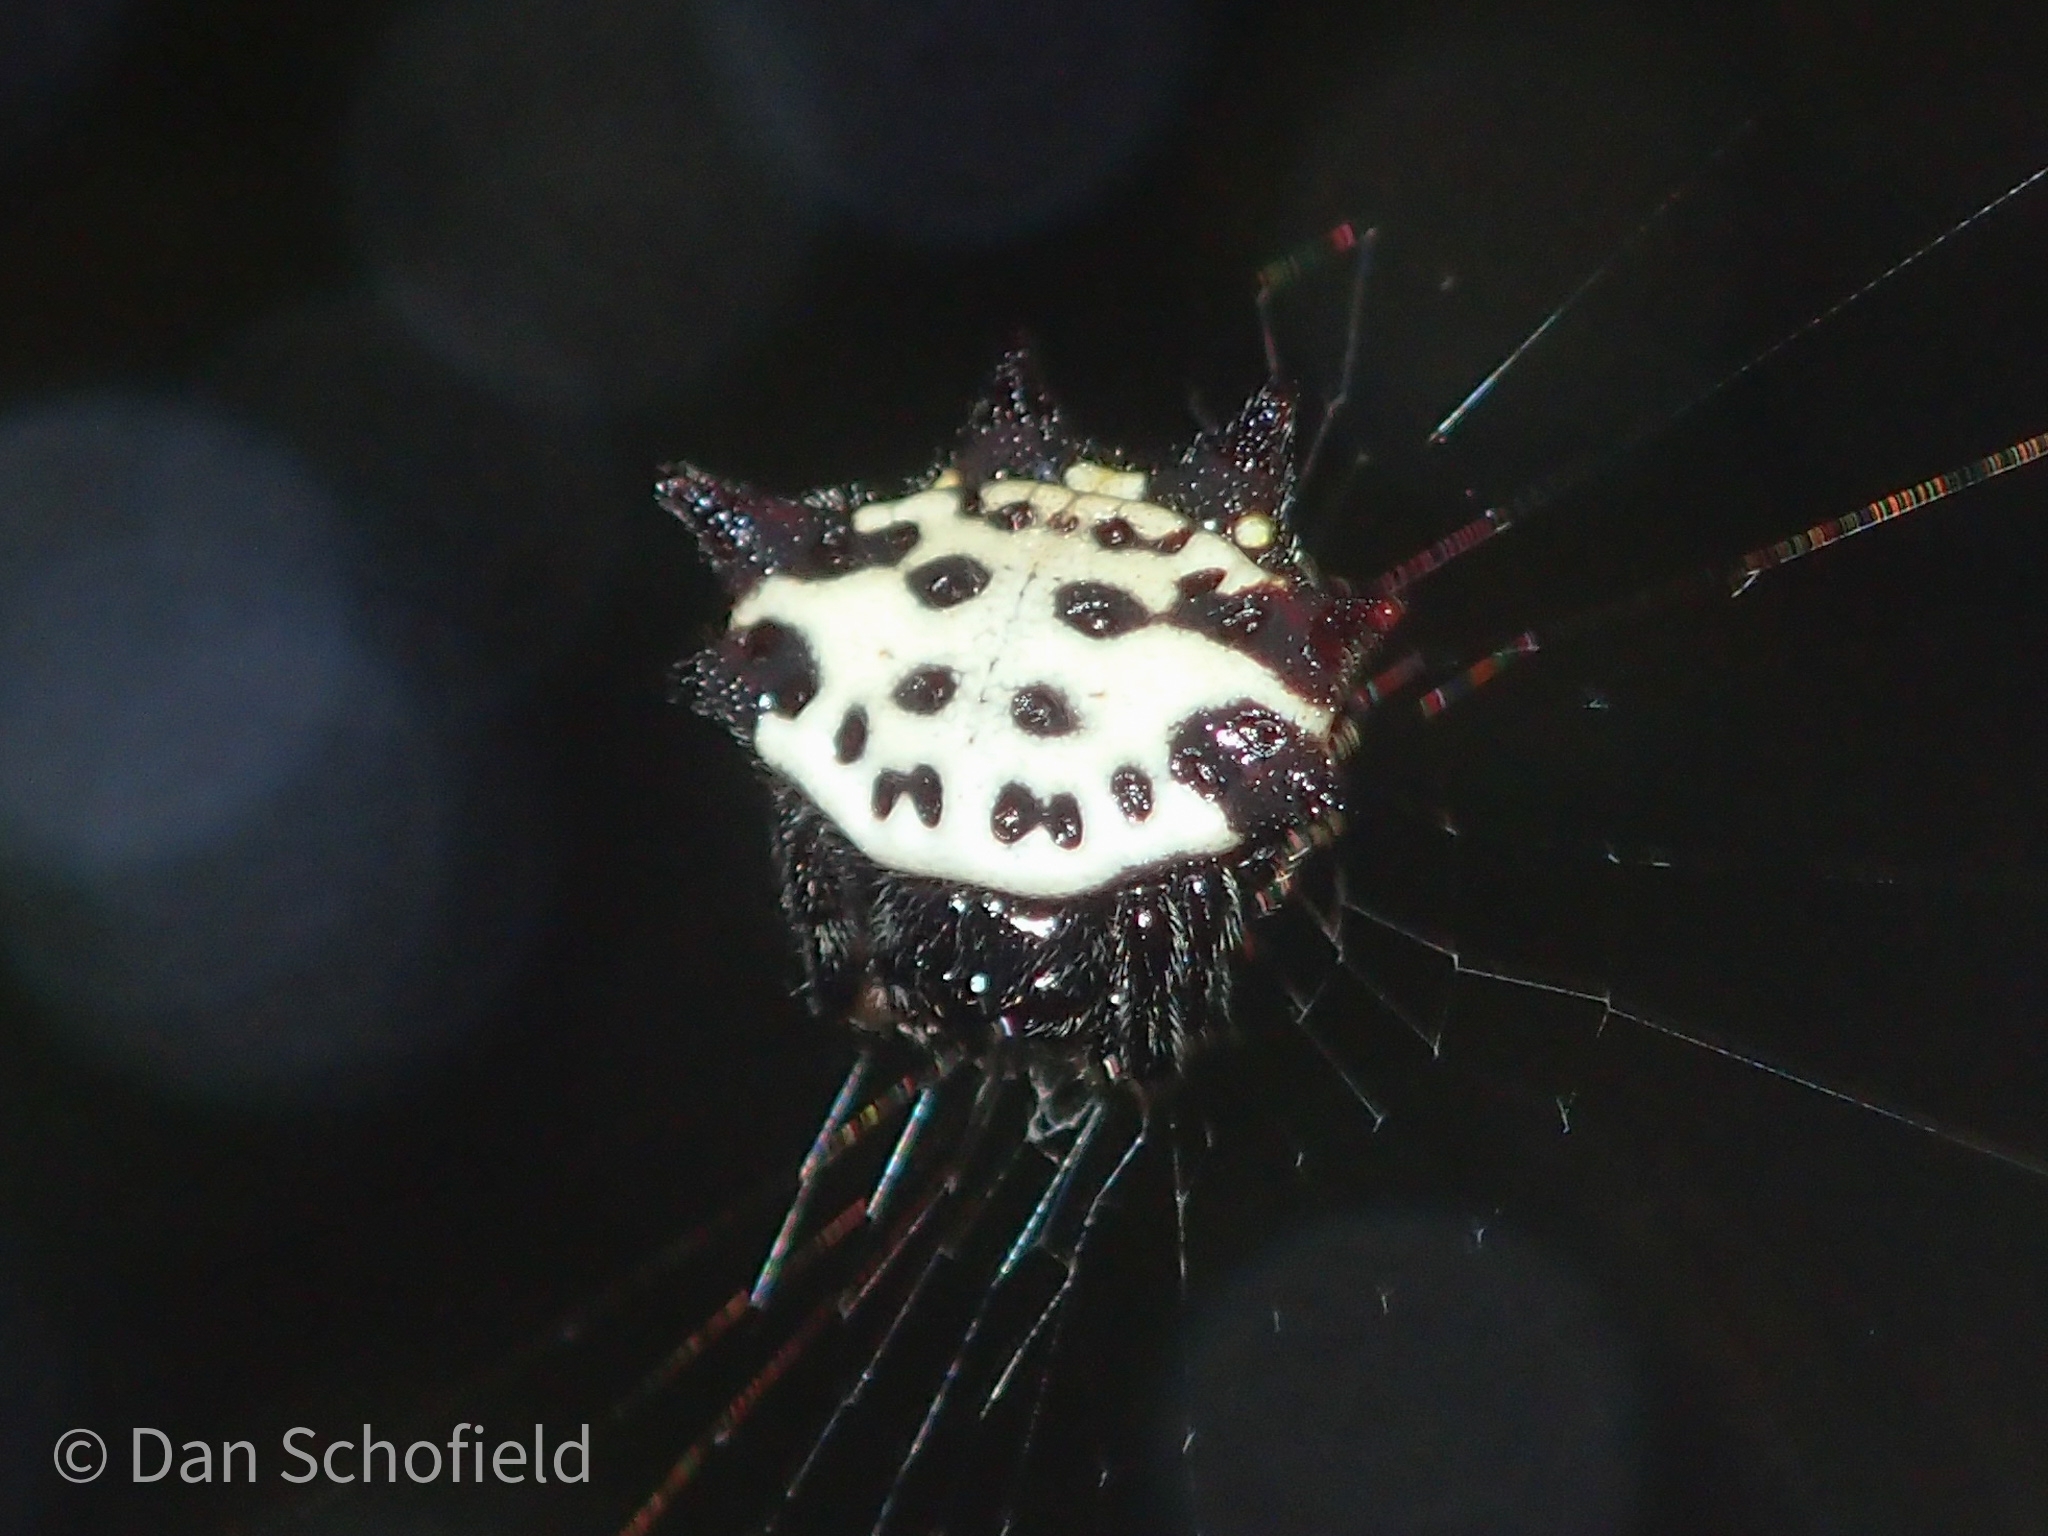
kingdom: Animalia
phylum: Arthropoda
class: Arachnida
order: Araneae
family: Araneidae
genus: Gasteracantha
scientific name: Gasteracantha cancriformis
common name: Orb weavers
